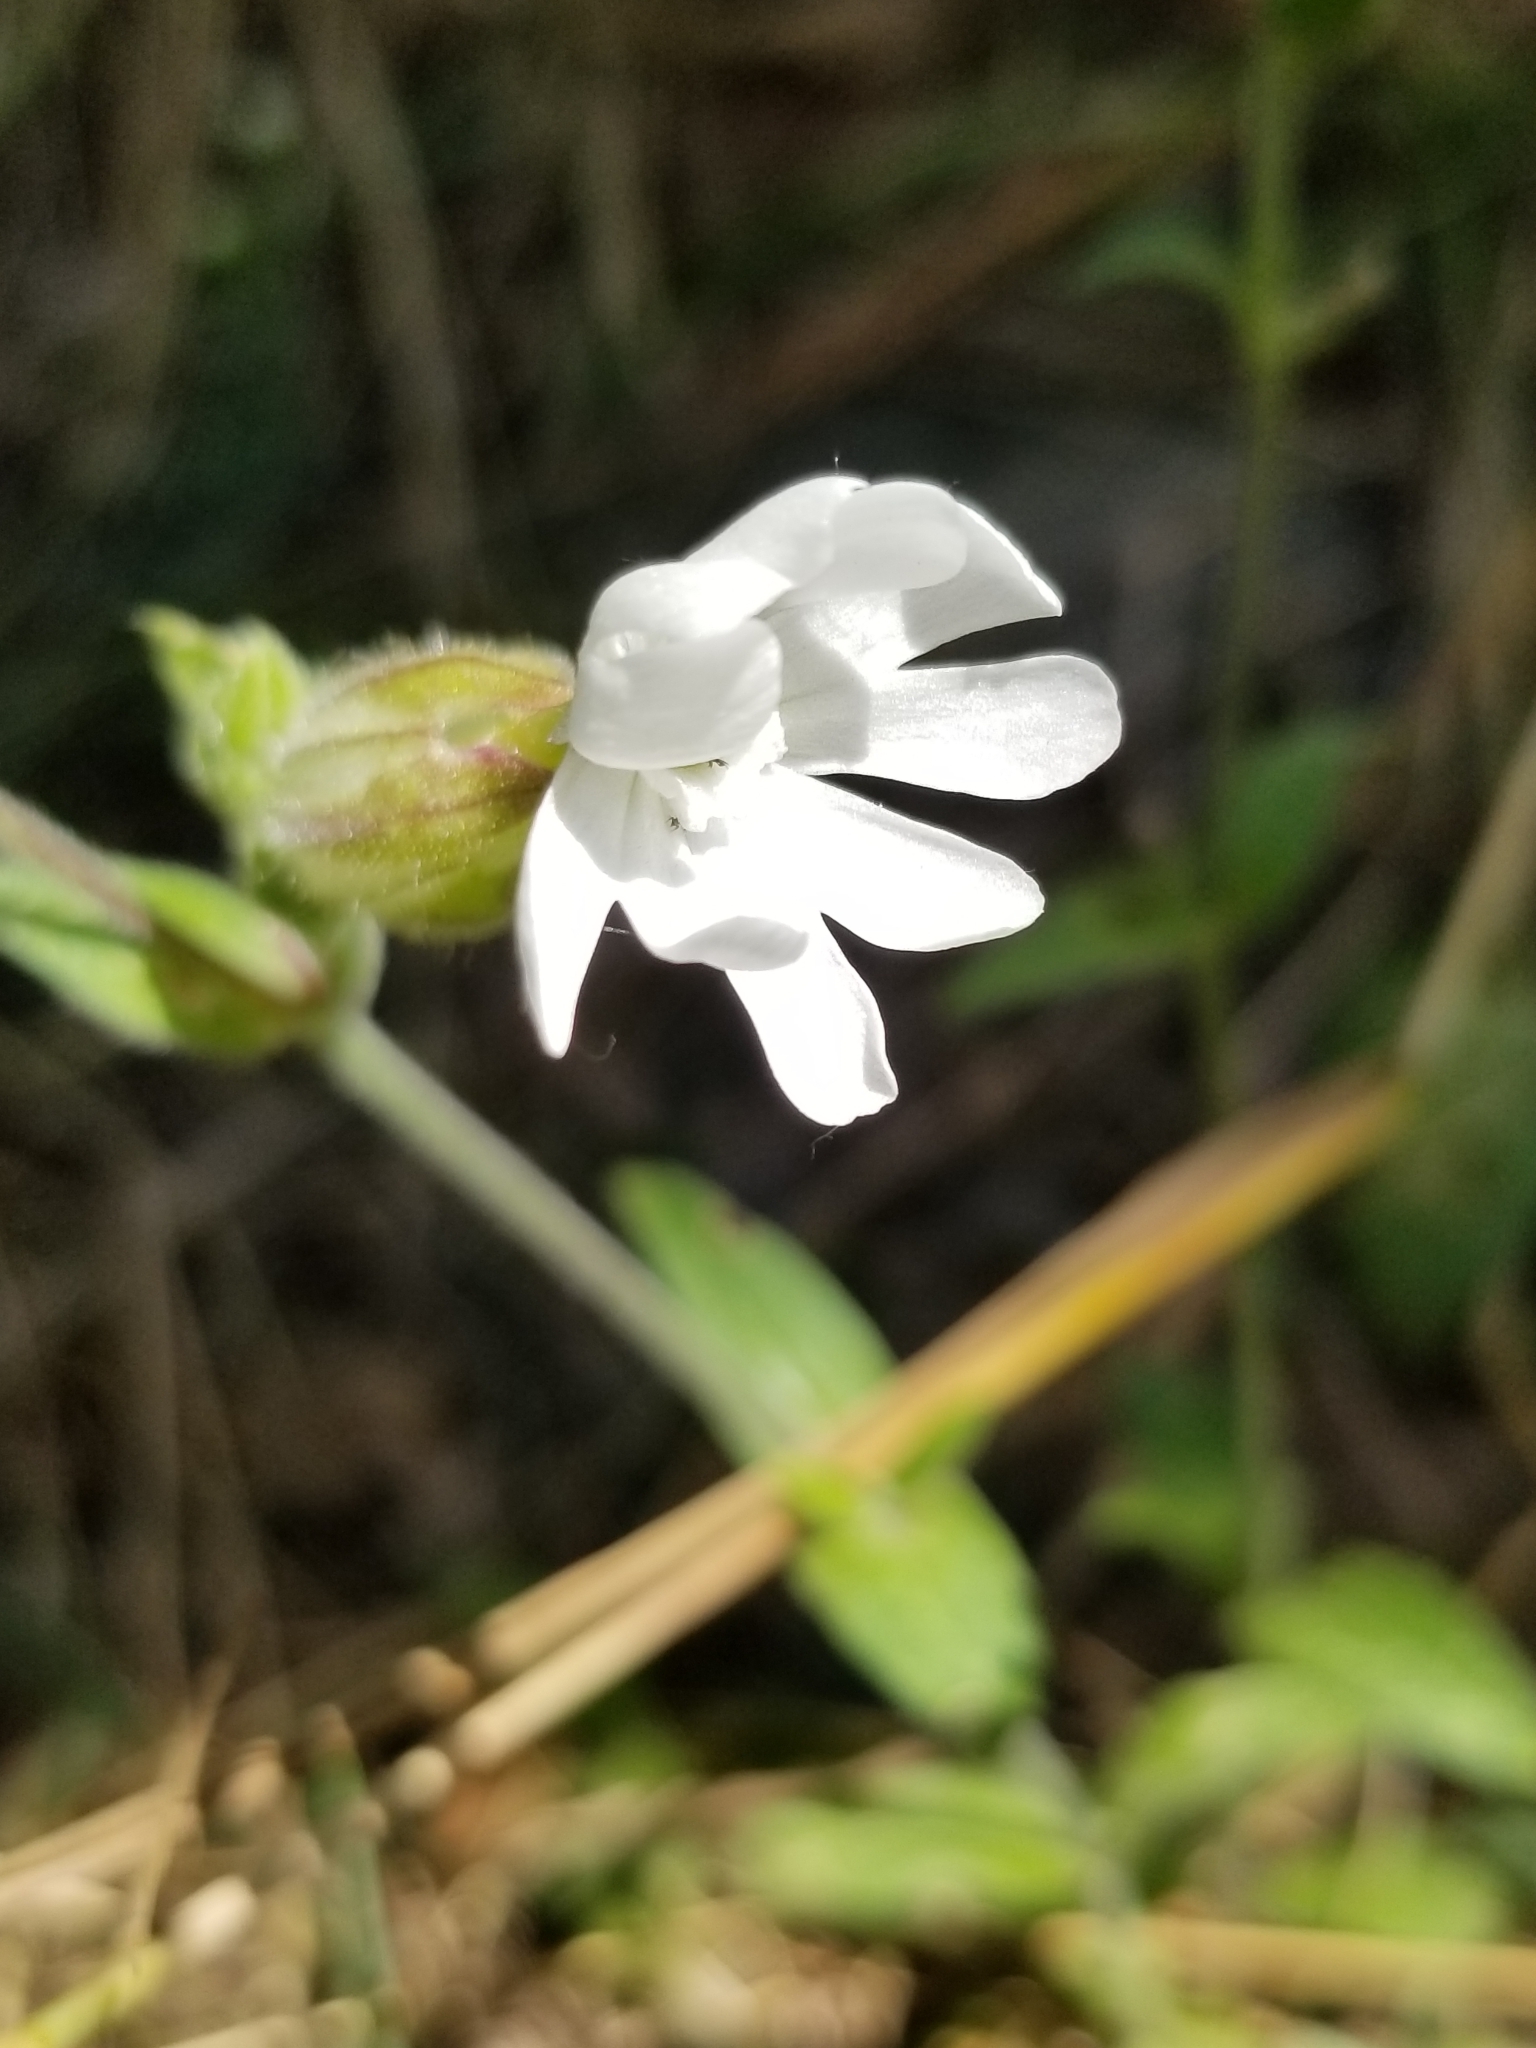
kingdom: Plantae
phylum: Tracheophyta
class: Magnoliopsida
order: Caryophyllales
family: Caryophyllaceae
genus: Silene
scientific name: Silene latifolia
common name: White campion
